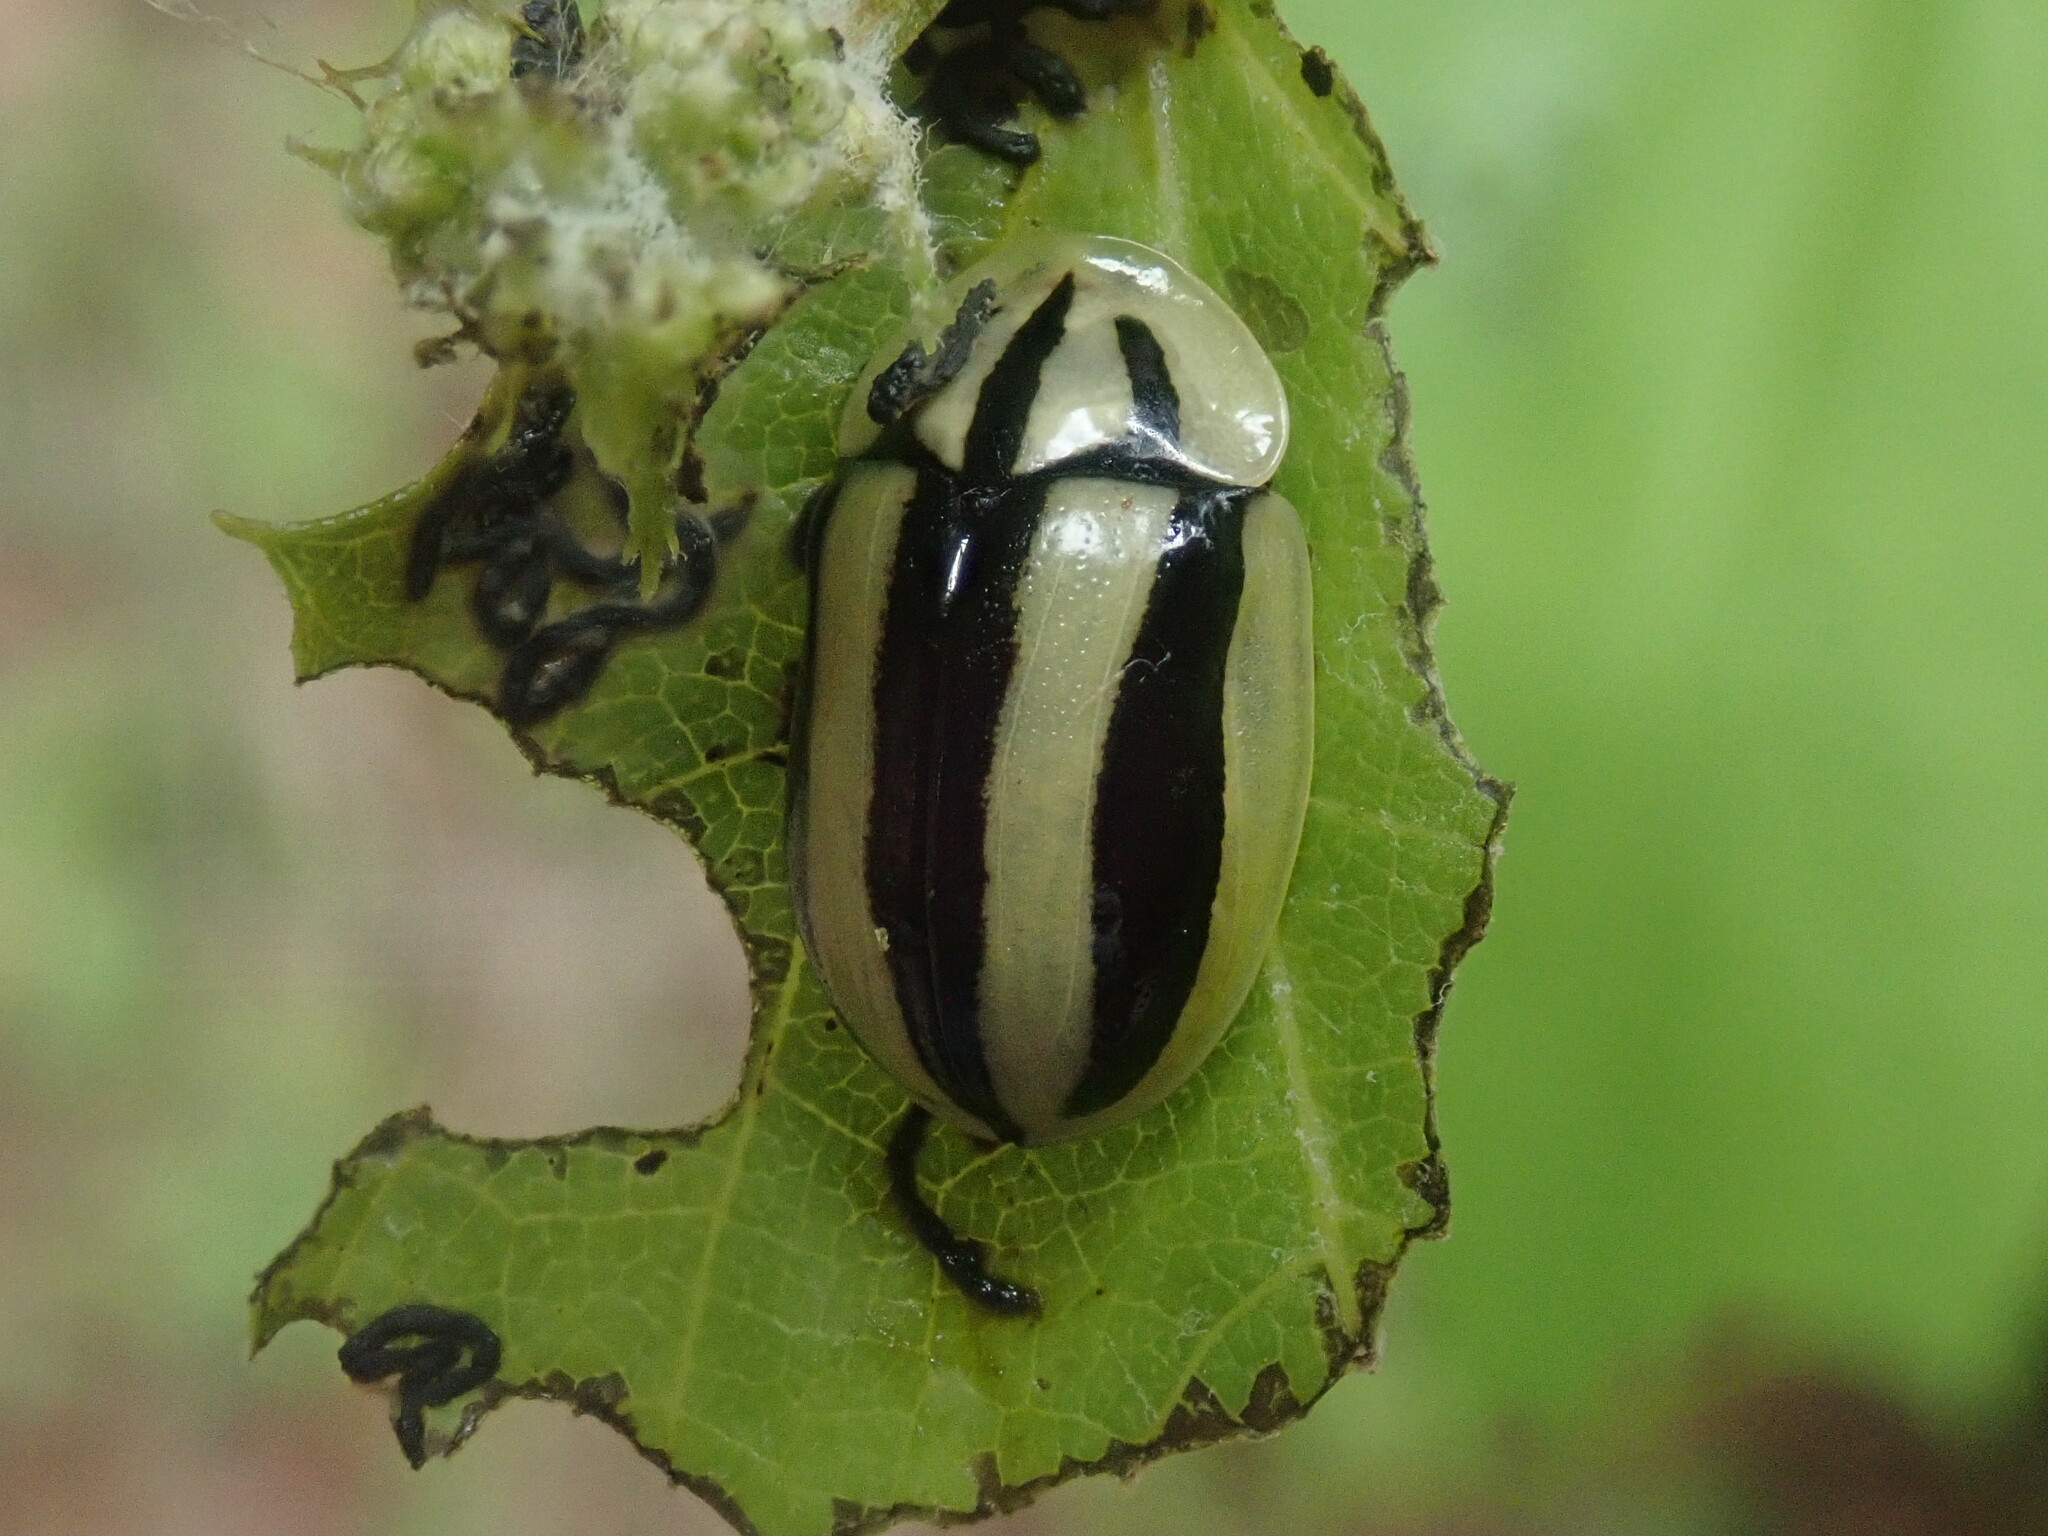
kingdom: Animalia
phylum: Arthropoda
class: Insecta
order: Coleoptera
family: Chrysomelidae
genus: Physonota
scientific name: Physonota disjuncta
